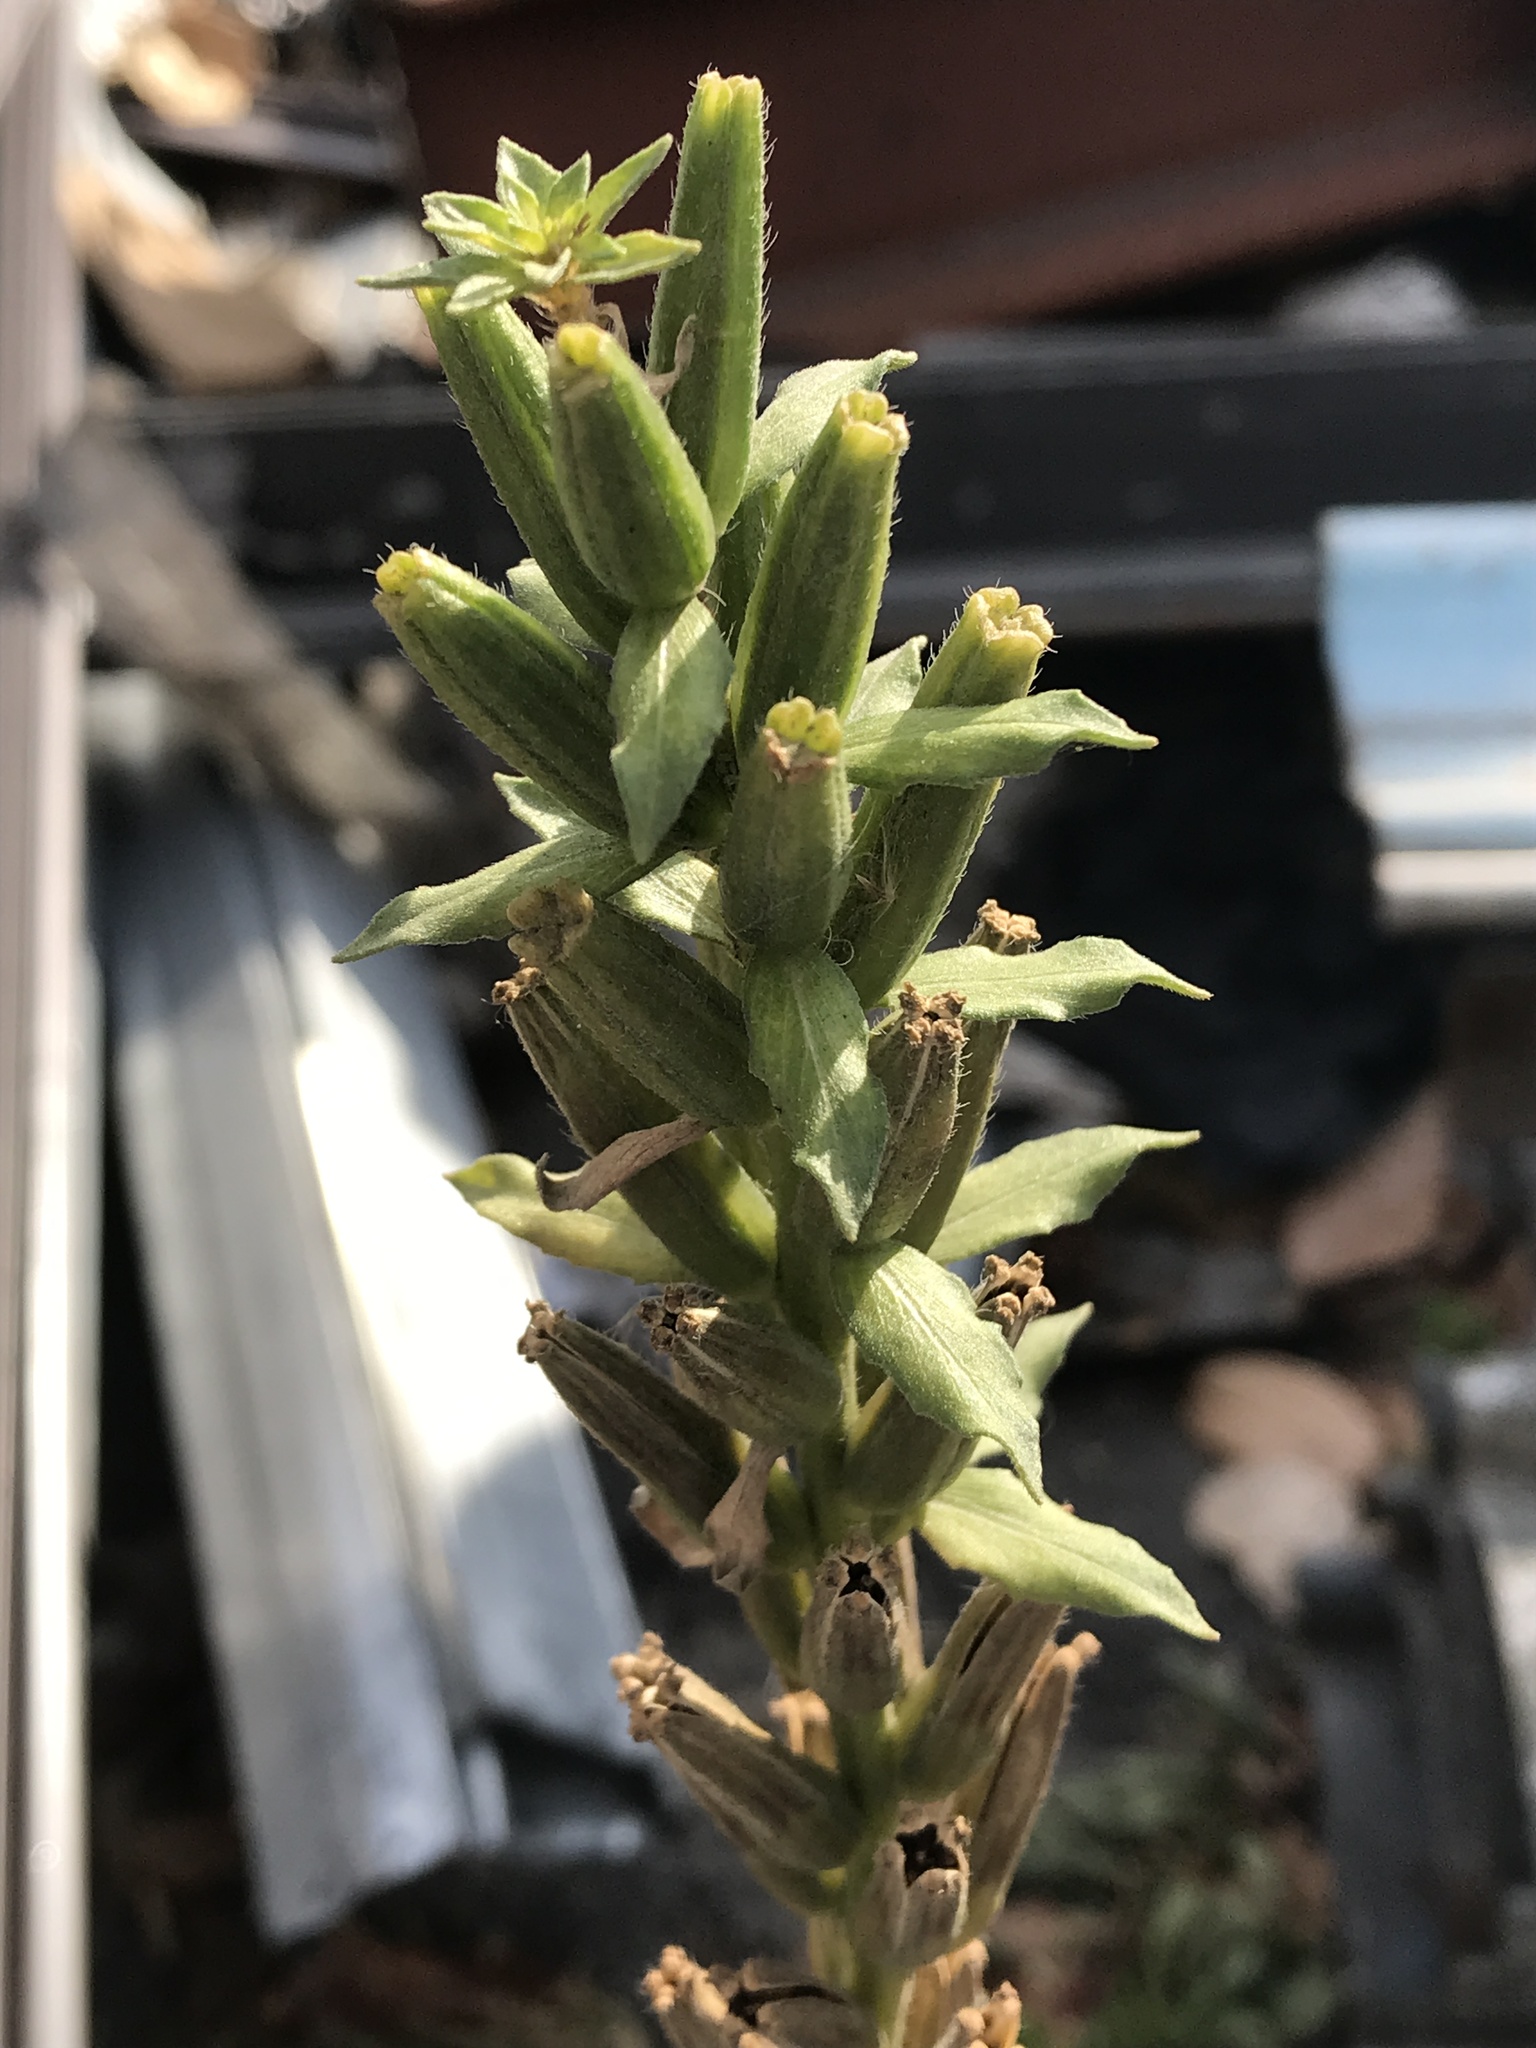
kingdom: Plantae
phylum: Tracheophyta
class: Magnoliopsida
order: Myrtales
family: Onagraceae
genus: Oenothera
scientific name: Oenothera biennis
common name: Common evening-primrose
